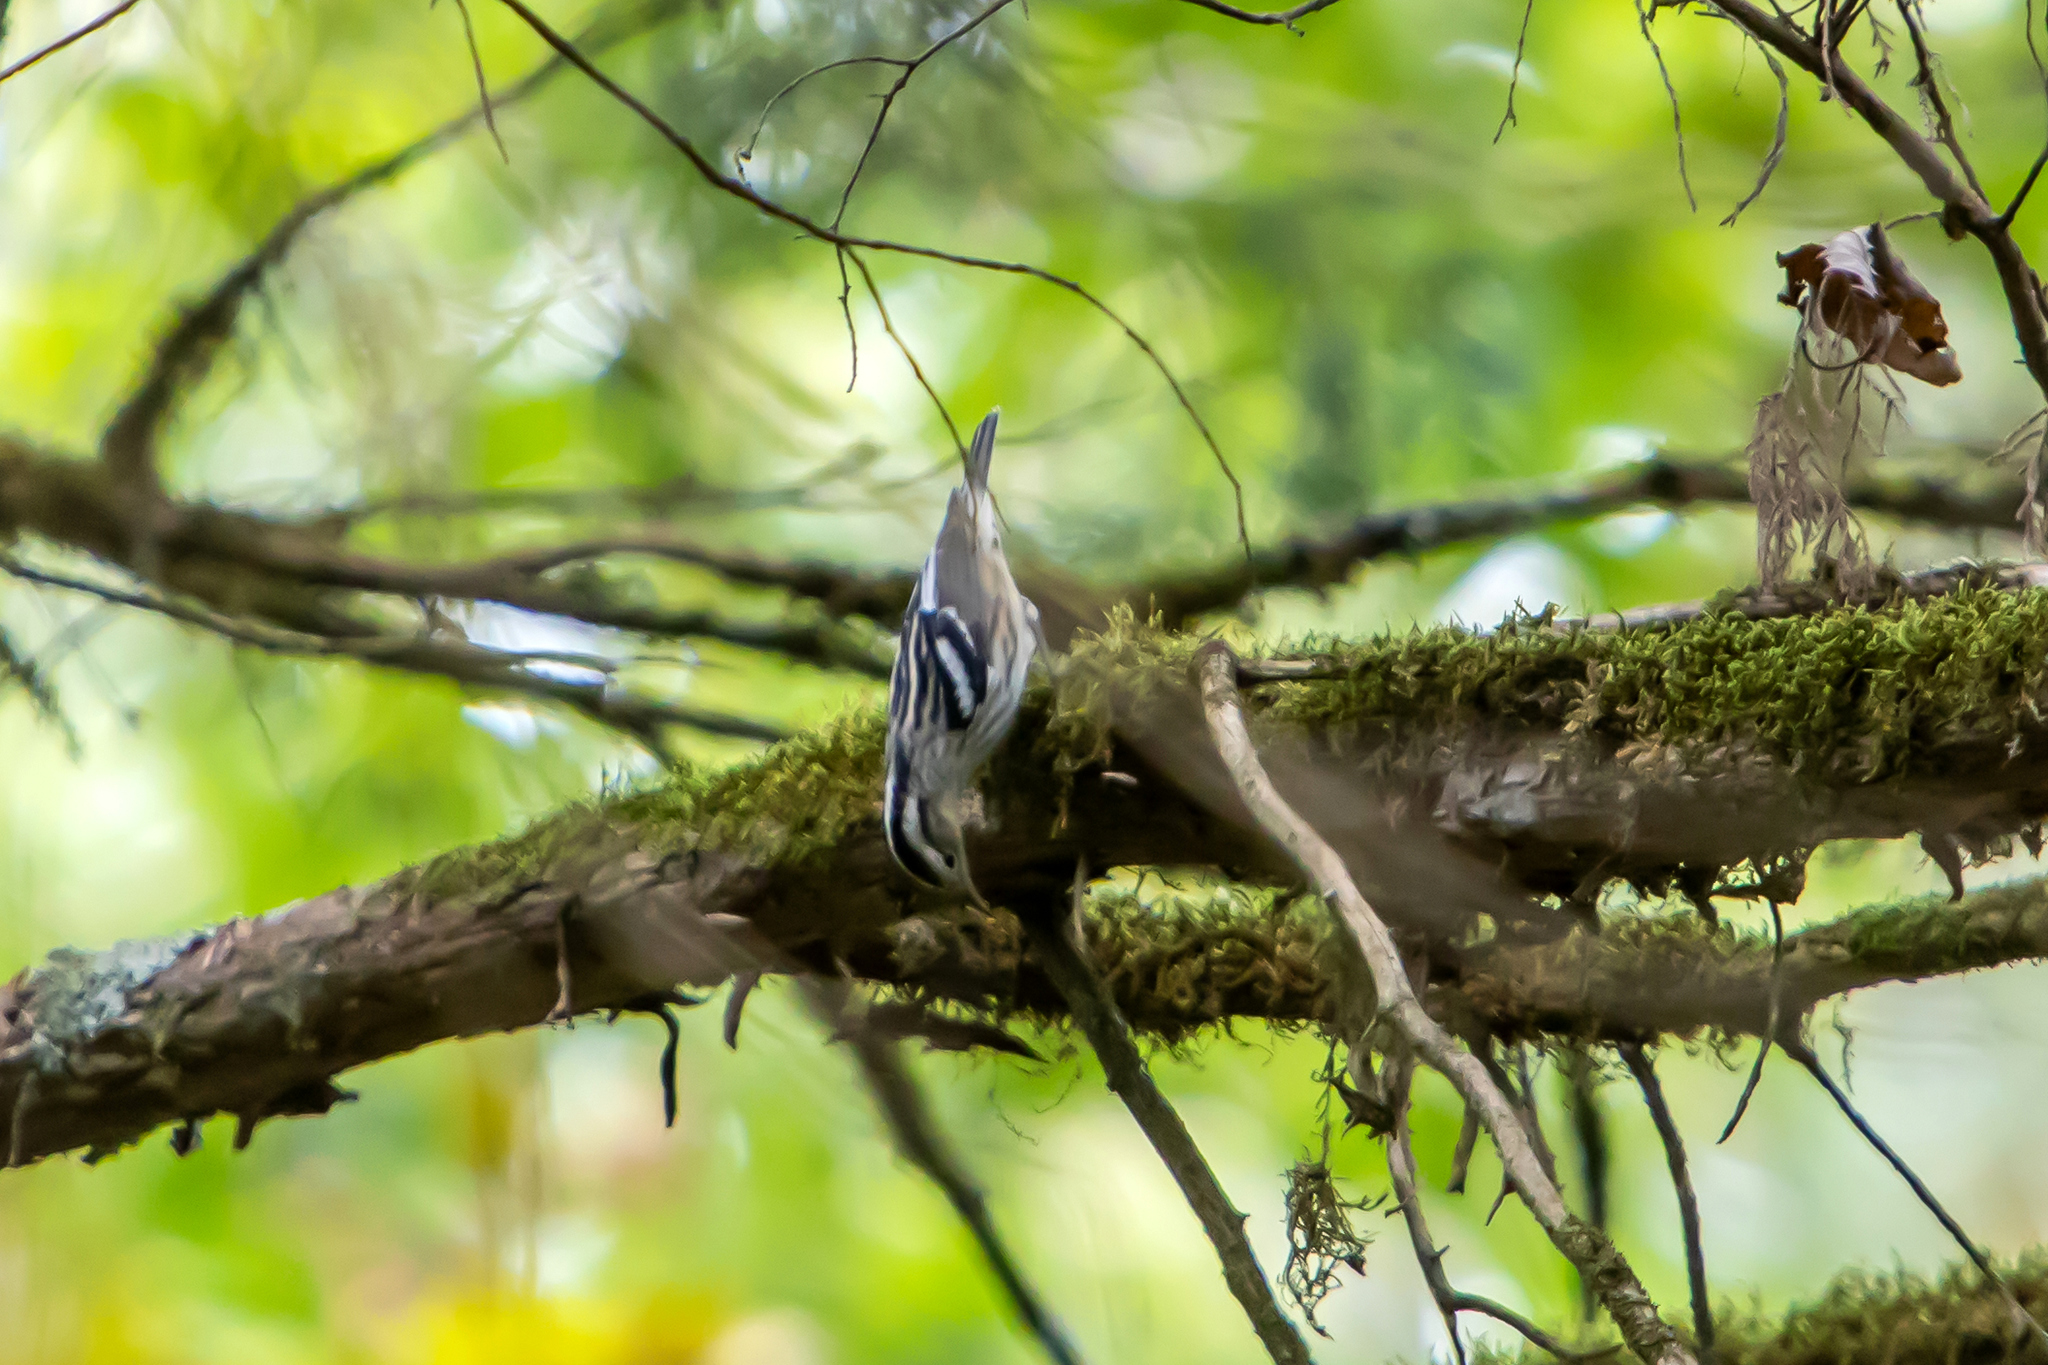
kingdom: Animalia
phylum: Chordata
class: Aves
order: Passeriformes
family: Parulidae
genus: Mniotilta
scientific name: Mniotilta varia
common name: Black-and-white warbler
